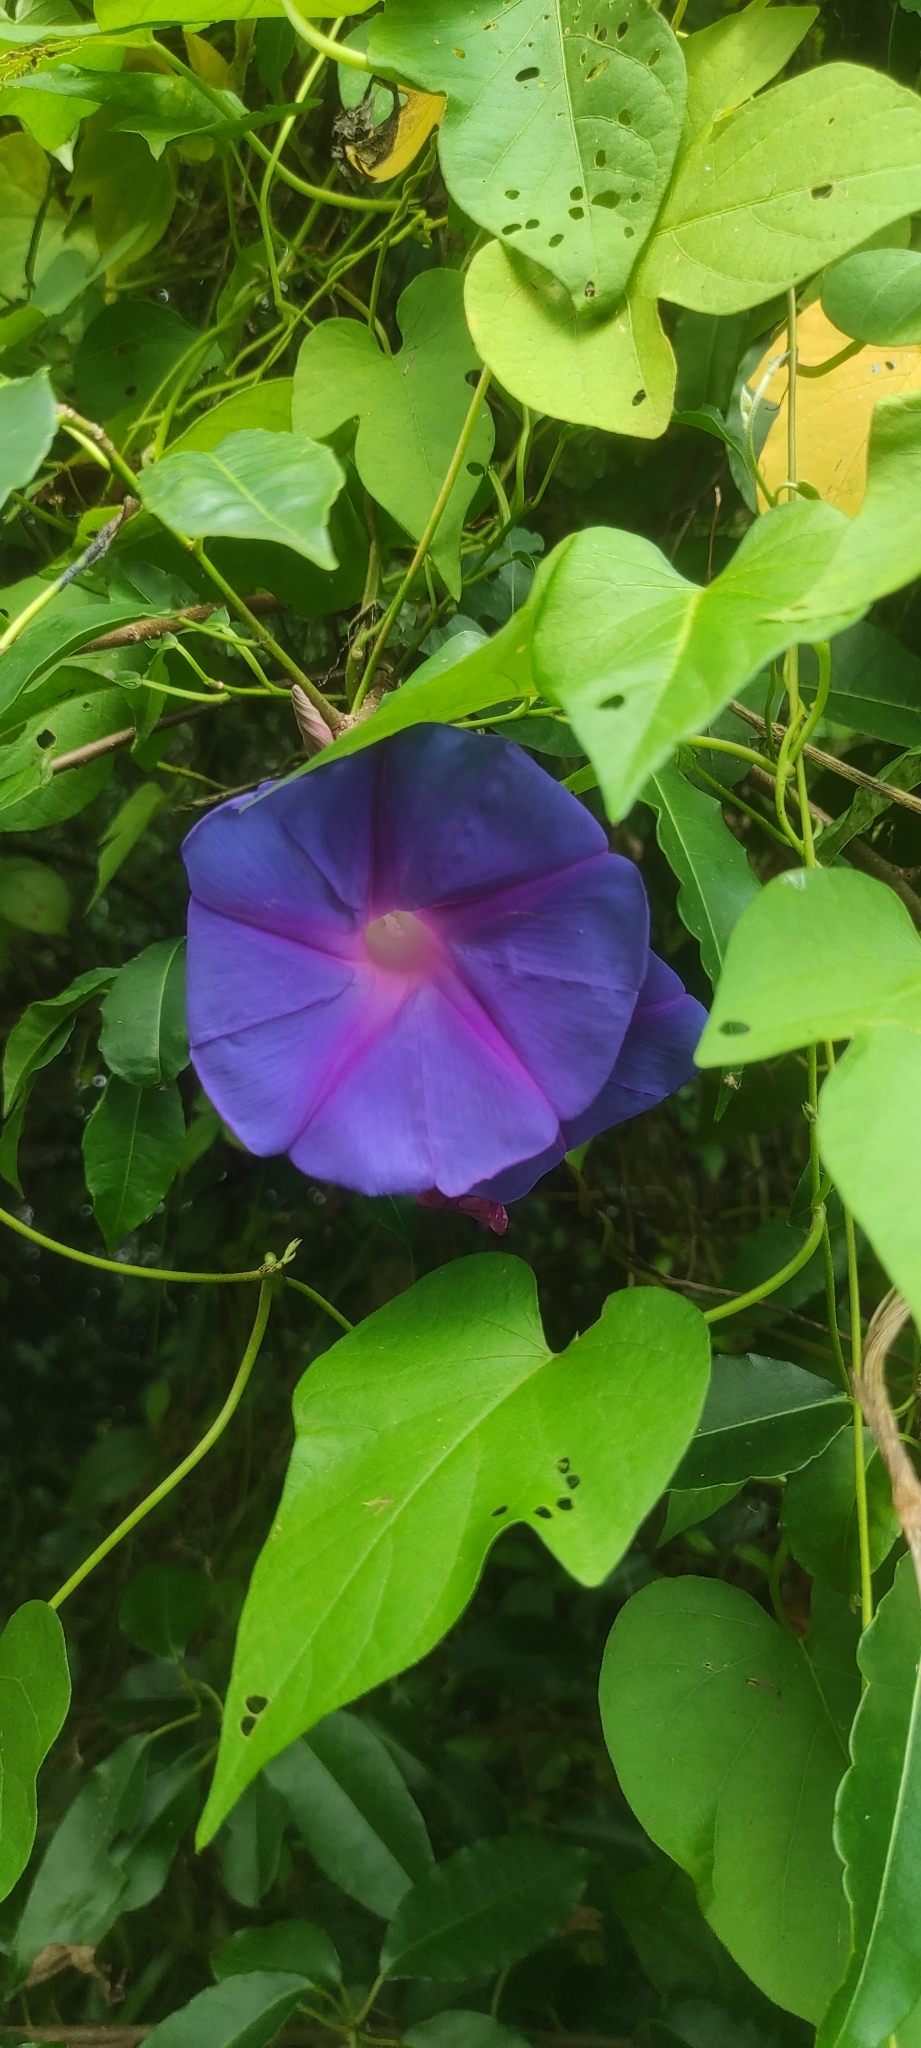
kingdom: Plantae
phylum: Tracheophyta
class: Magnoliopsida
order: Solanales
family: Convolvulaceae
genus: Ipomoea
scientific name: Ipomoea indica
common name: Blue dawnflower
